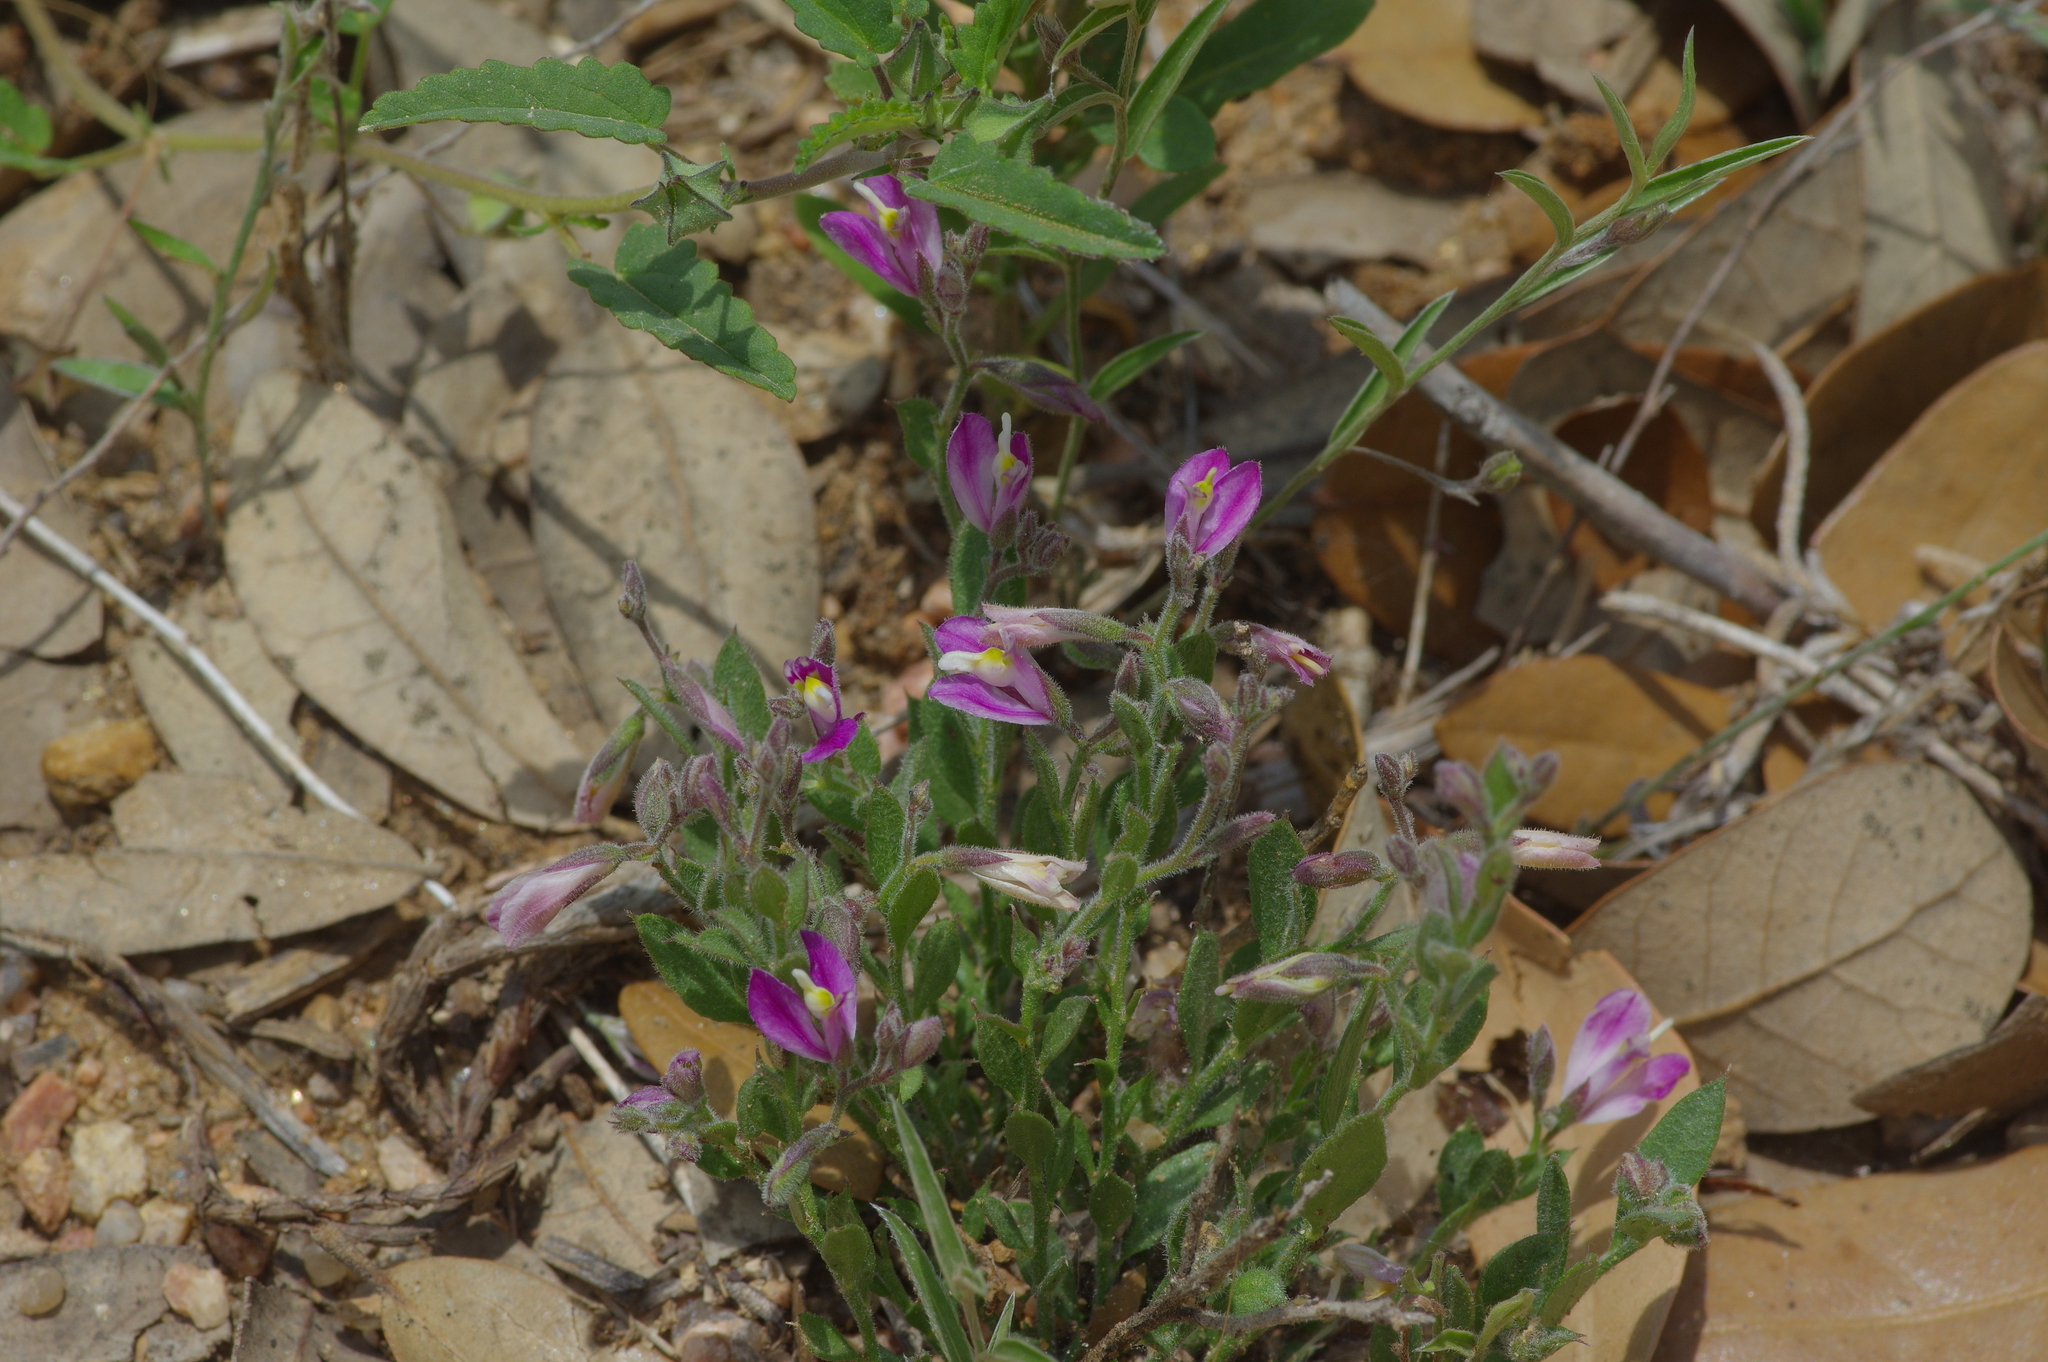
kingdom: Plantae
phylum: Tracheophyta
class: Magnoliopsida
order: Fabales
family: Polygalaceae
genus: Rhinotropis
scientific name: Rhinotropis lindheimeri
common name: Shrubby milkwort
